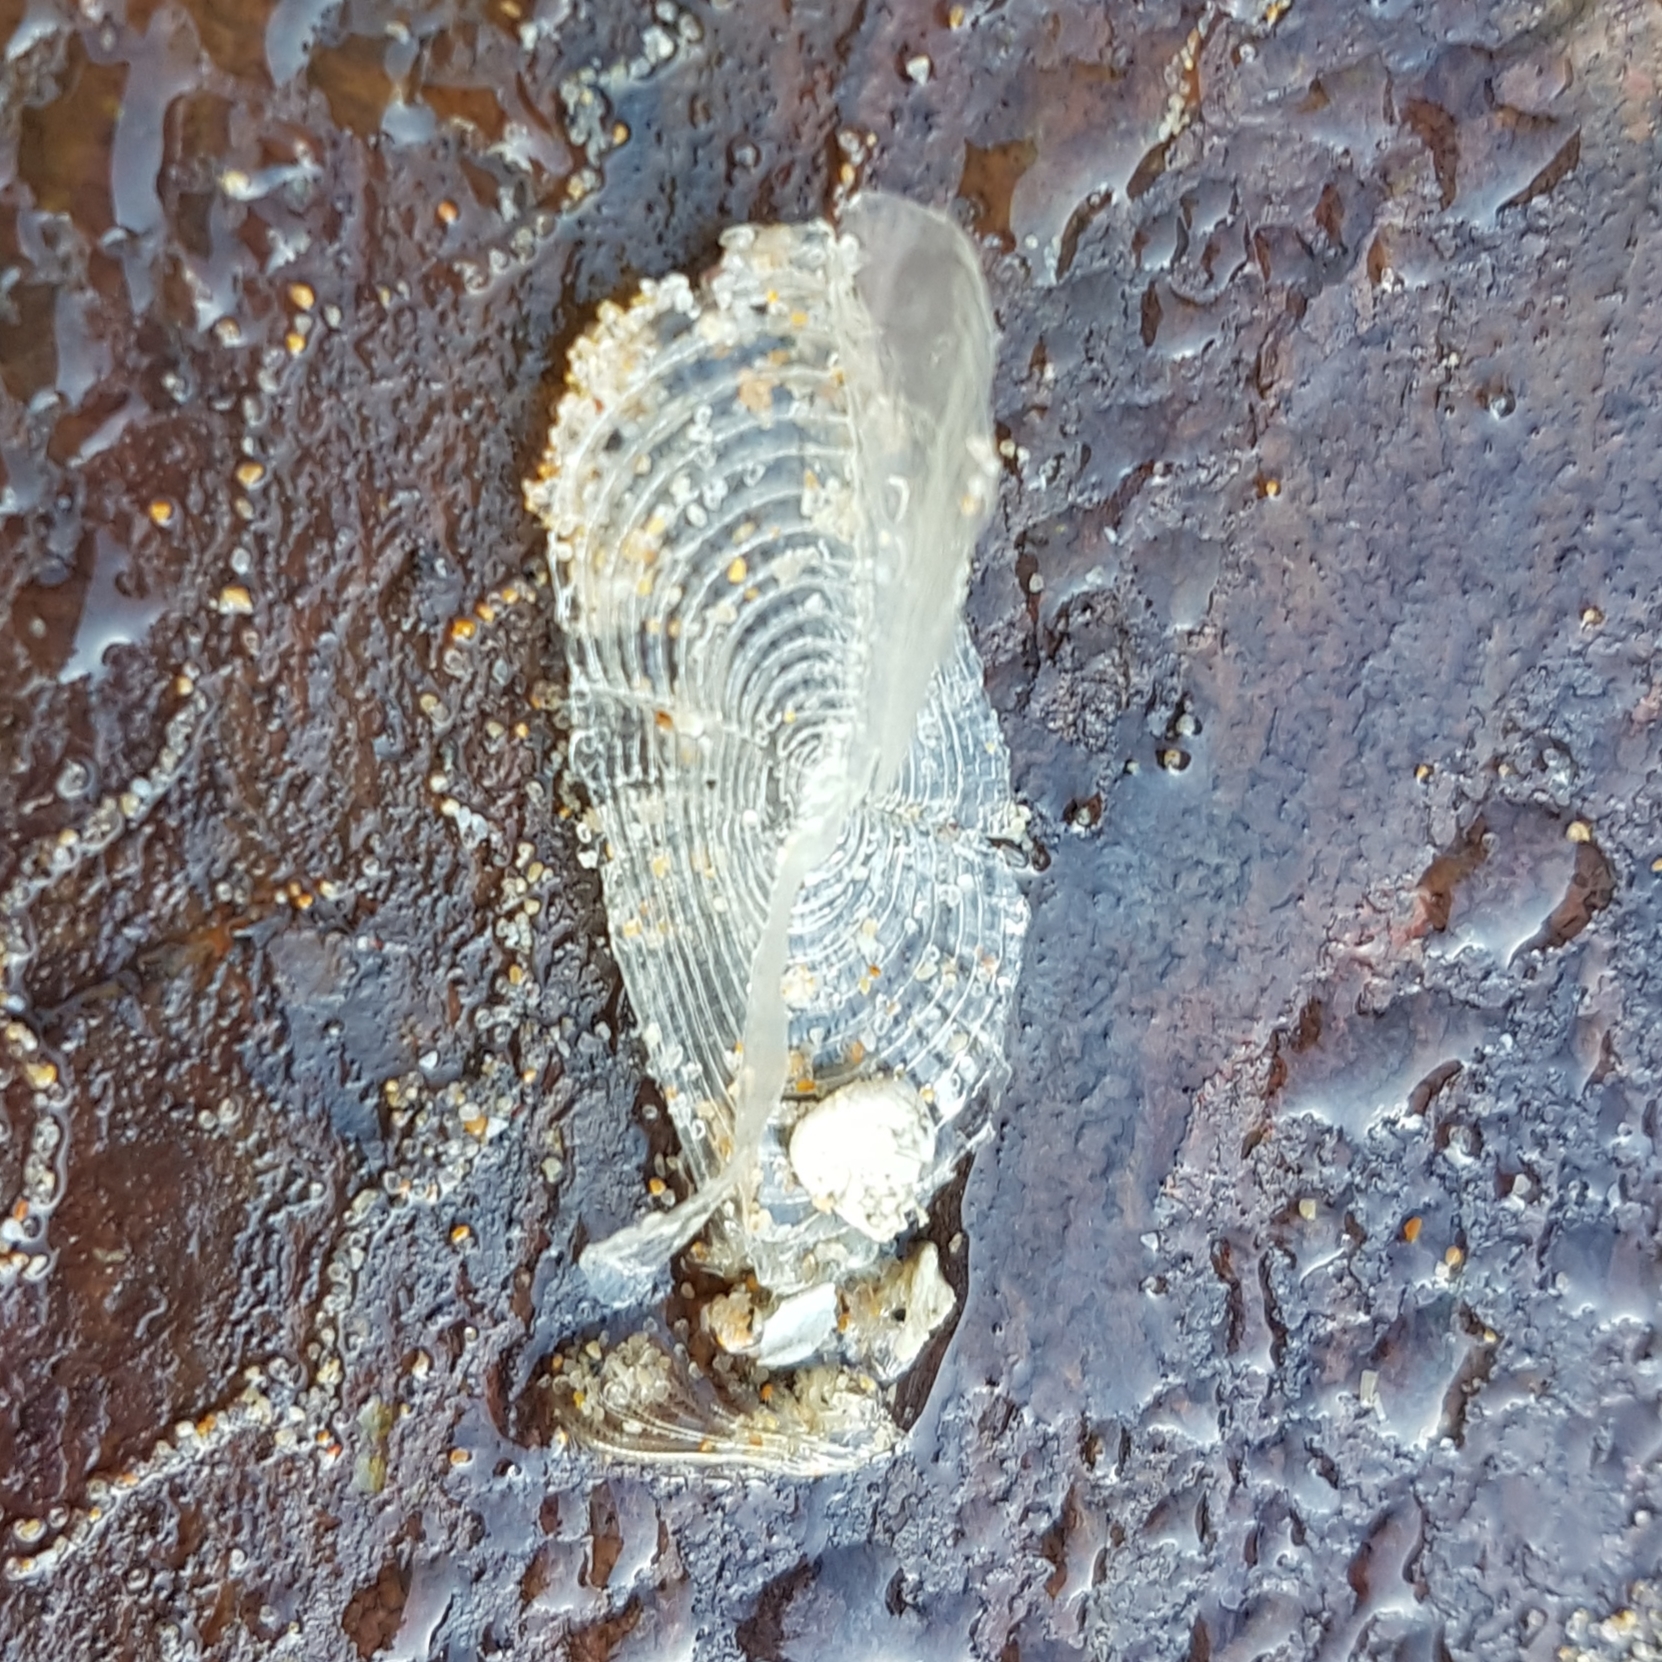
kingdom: Animalia
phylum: Cnidaria
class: Hydrozoa
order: Anthoathecata
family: Porpitidae
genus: Velella
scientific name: Velella velella
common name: By-the-wind-sailor
